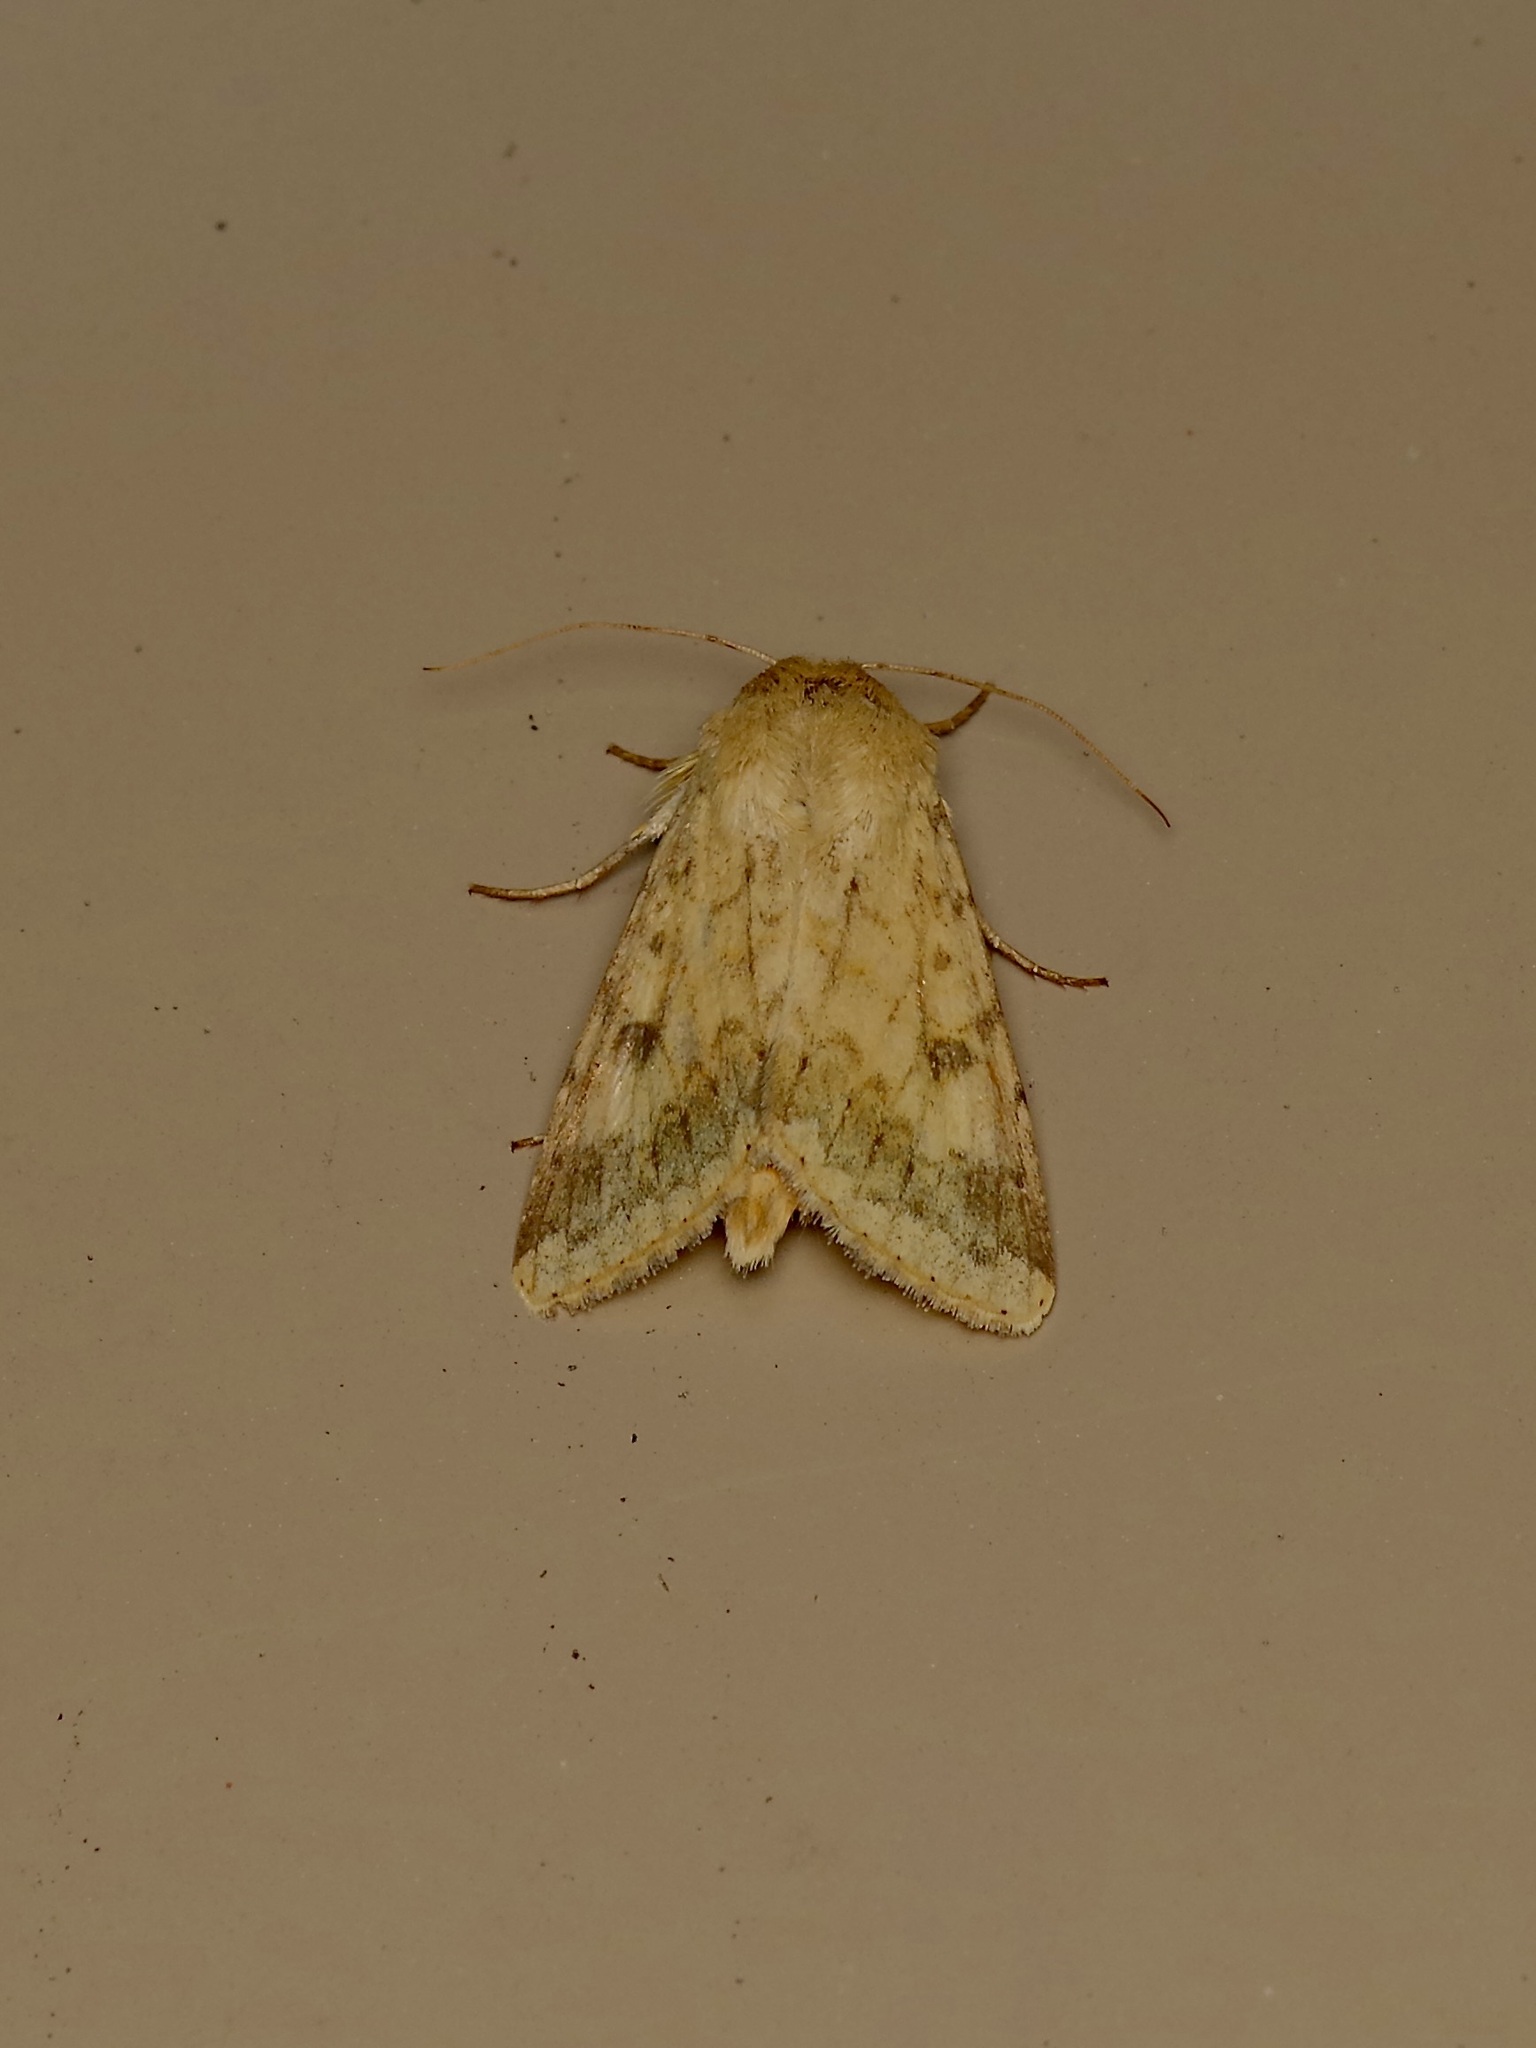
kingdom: Animalia
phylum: Arthropoda
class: Insecta
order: Lepidoptera
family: Noctuidae
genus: Helicoverpa
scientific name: Helicoverpa zea
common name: Bollworm
